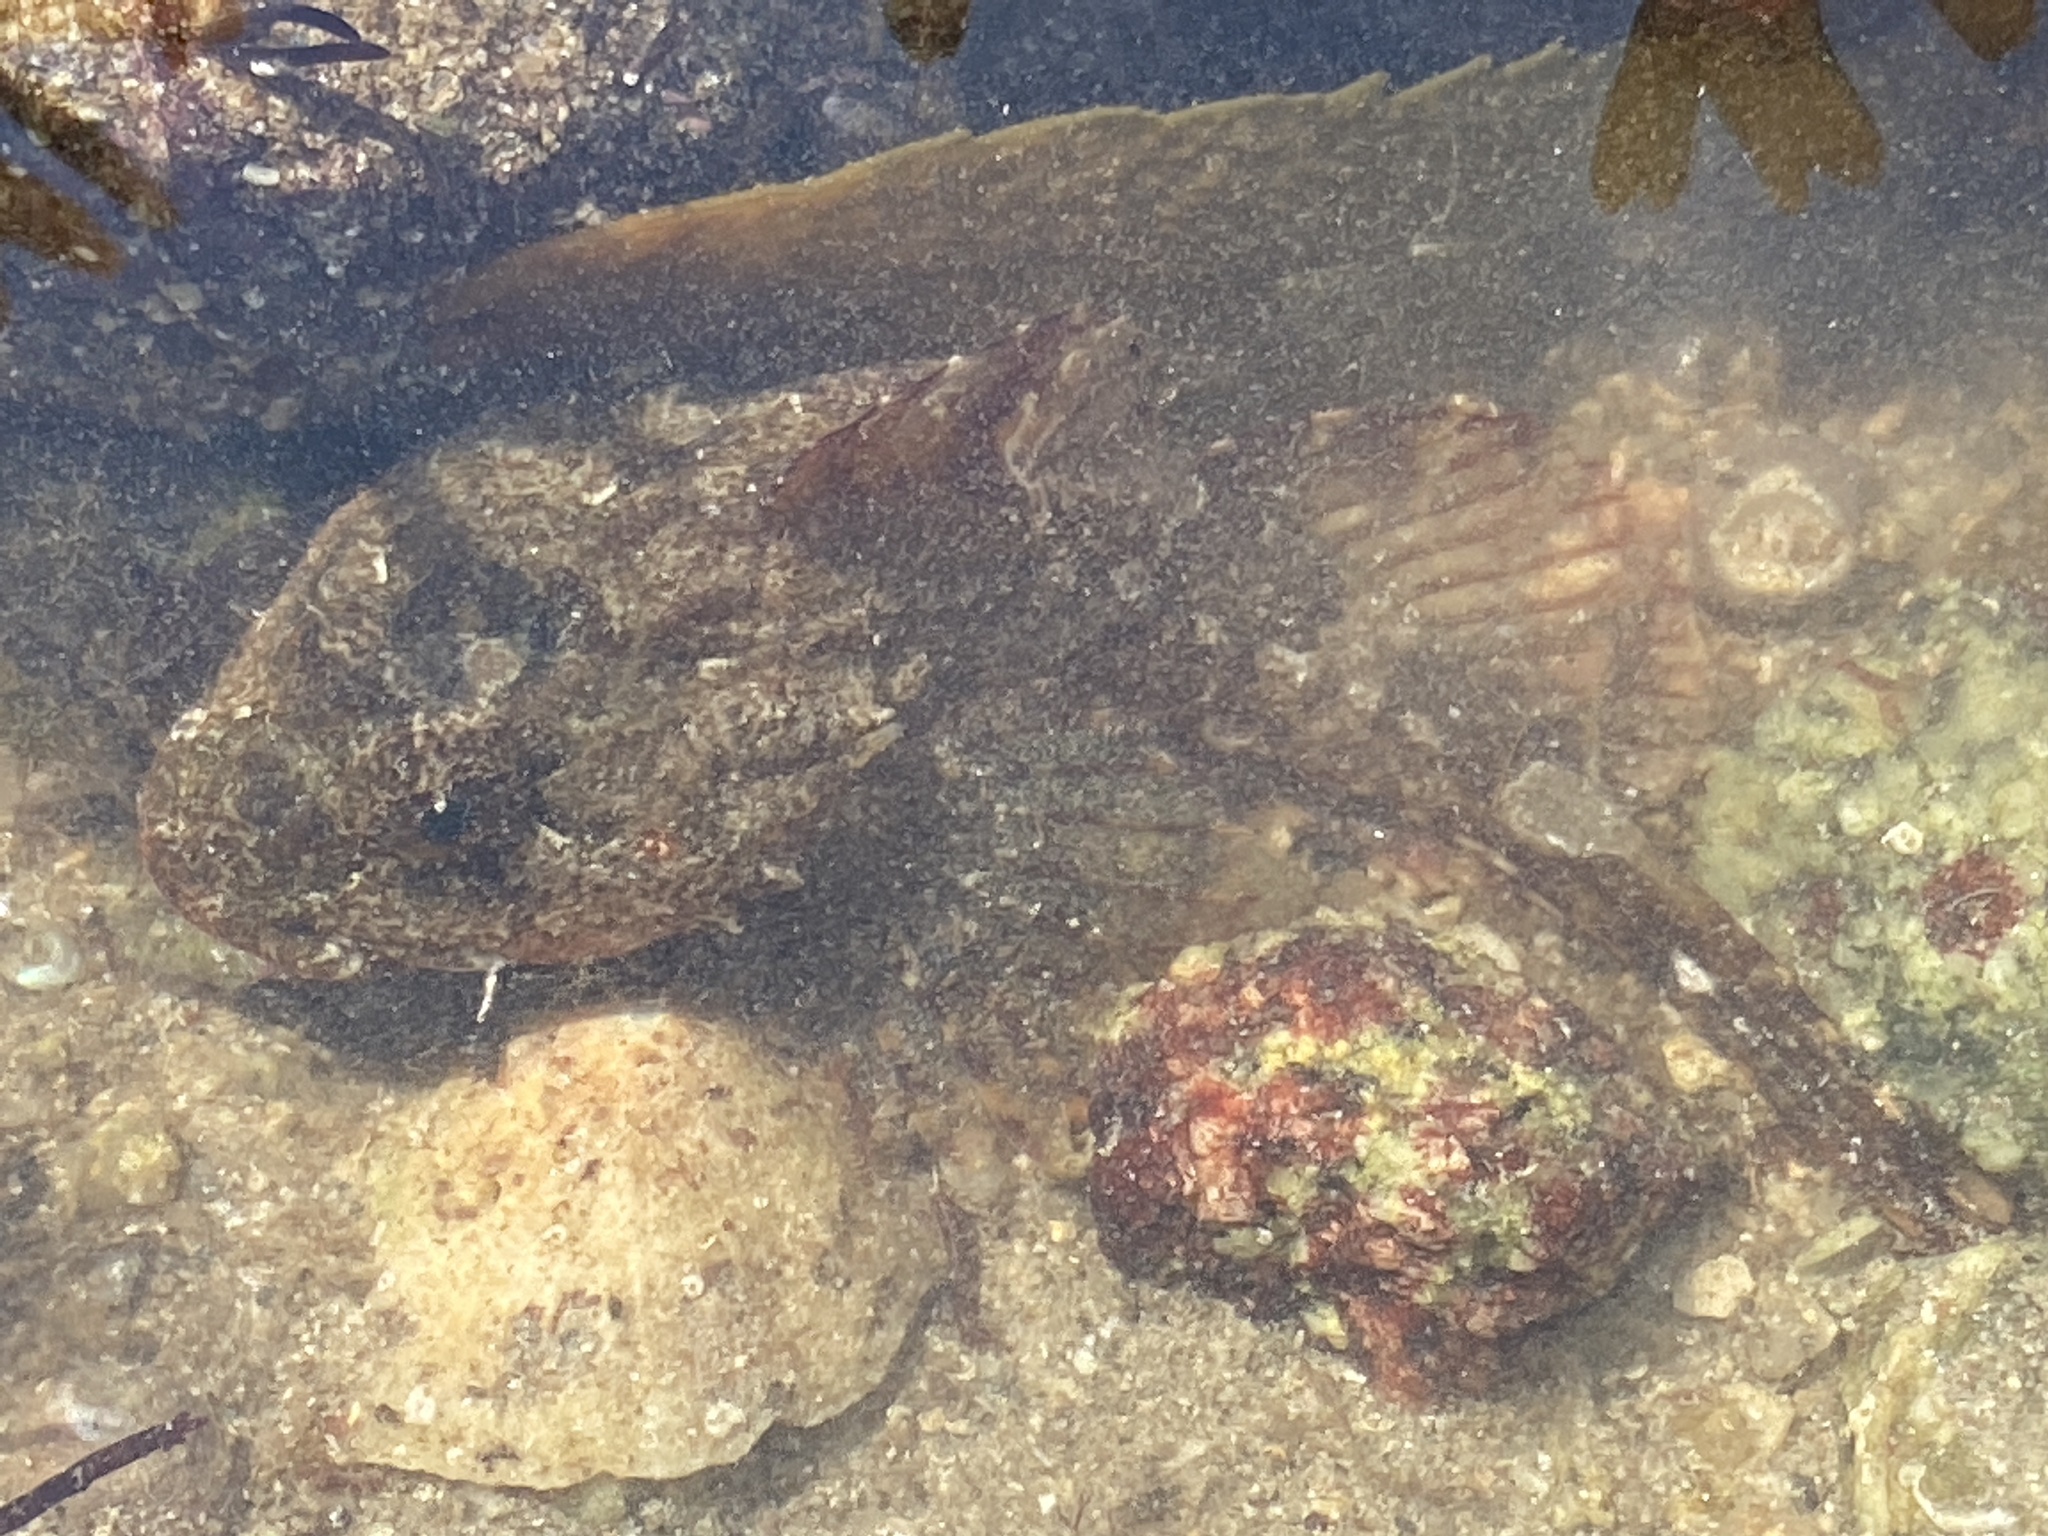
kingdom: Animalia
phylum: Chordata
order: Scorpaeniformes
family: Cottidae
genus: Taurulus
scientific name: Taurulus bubalis
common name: Sea scorpion
